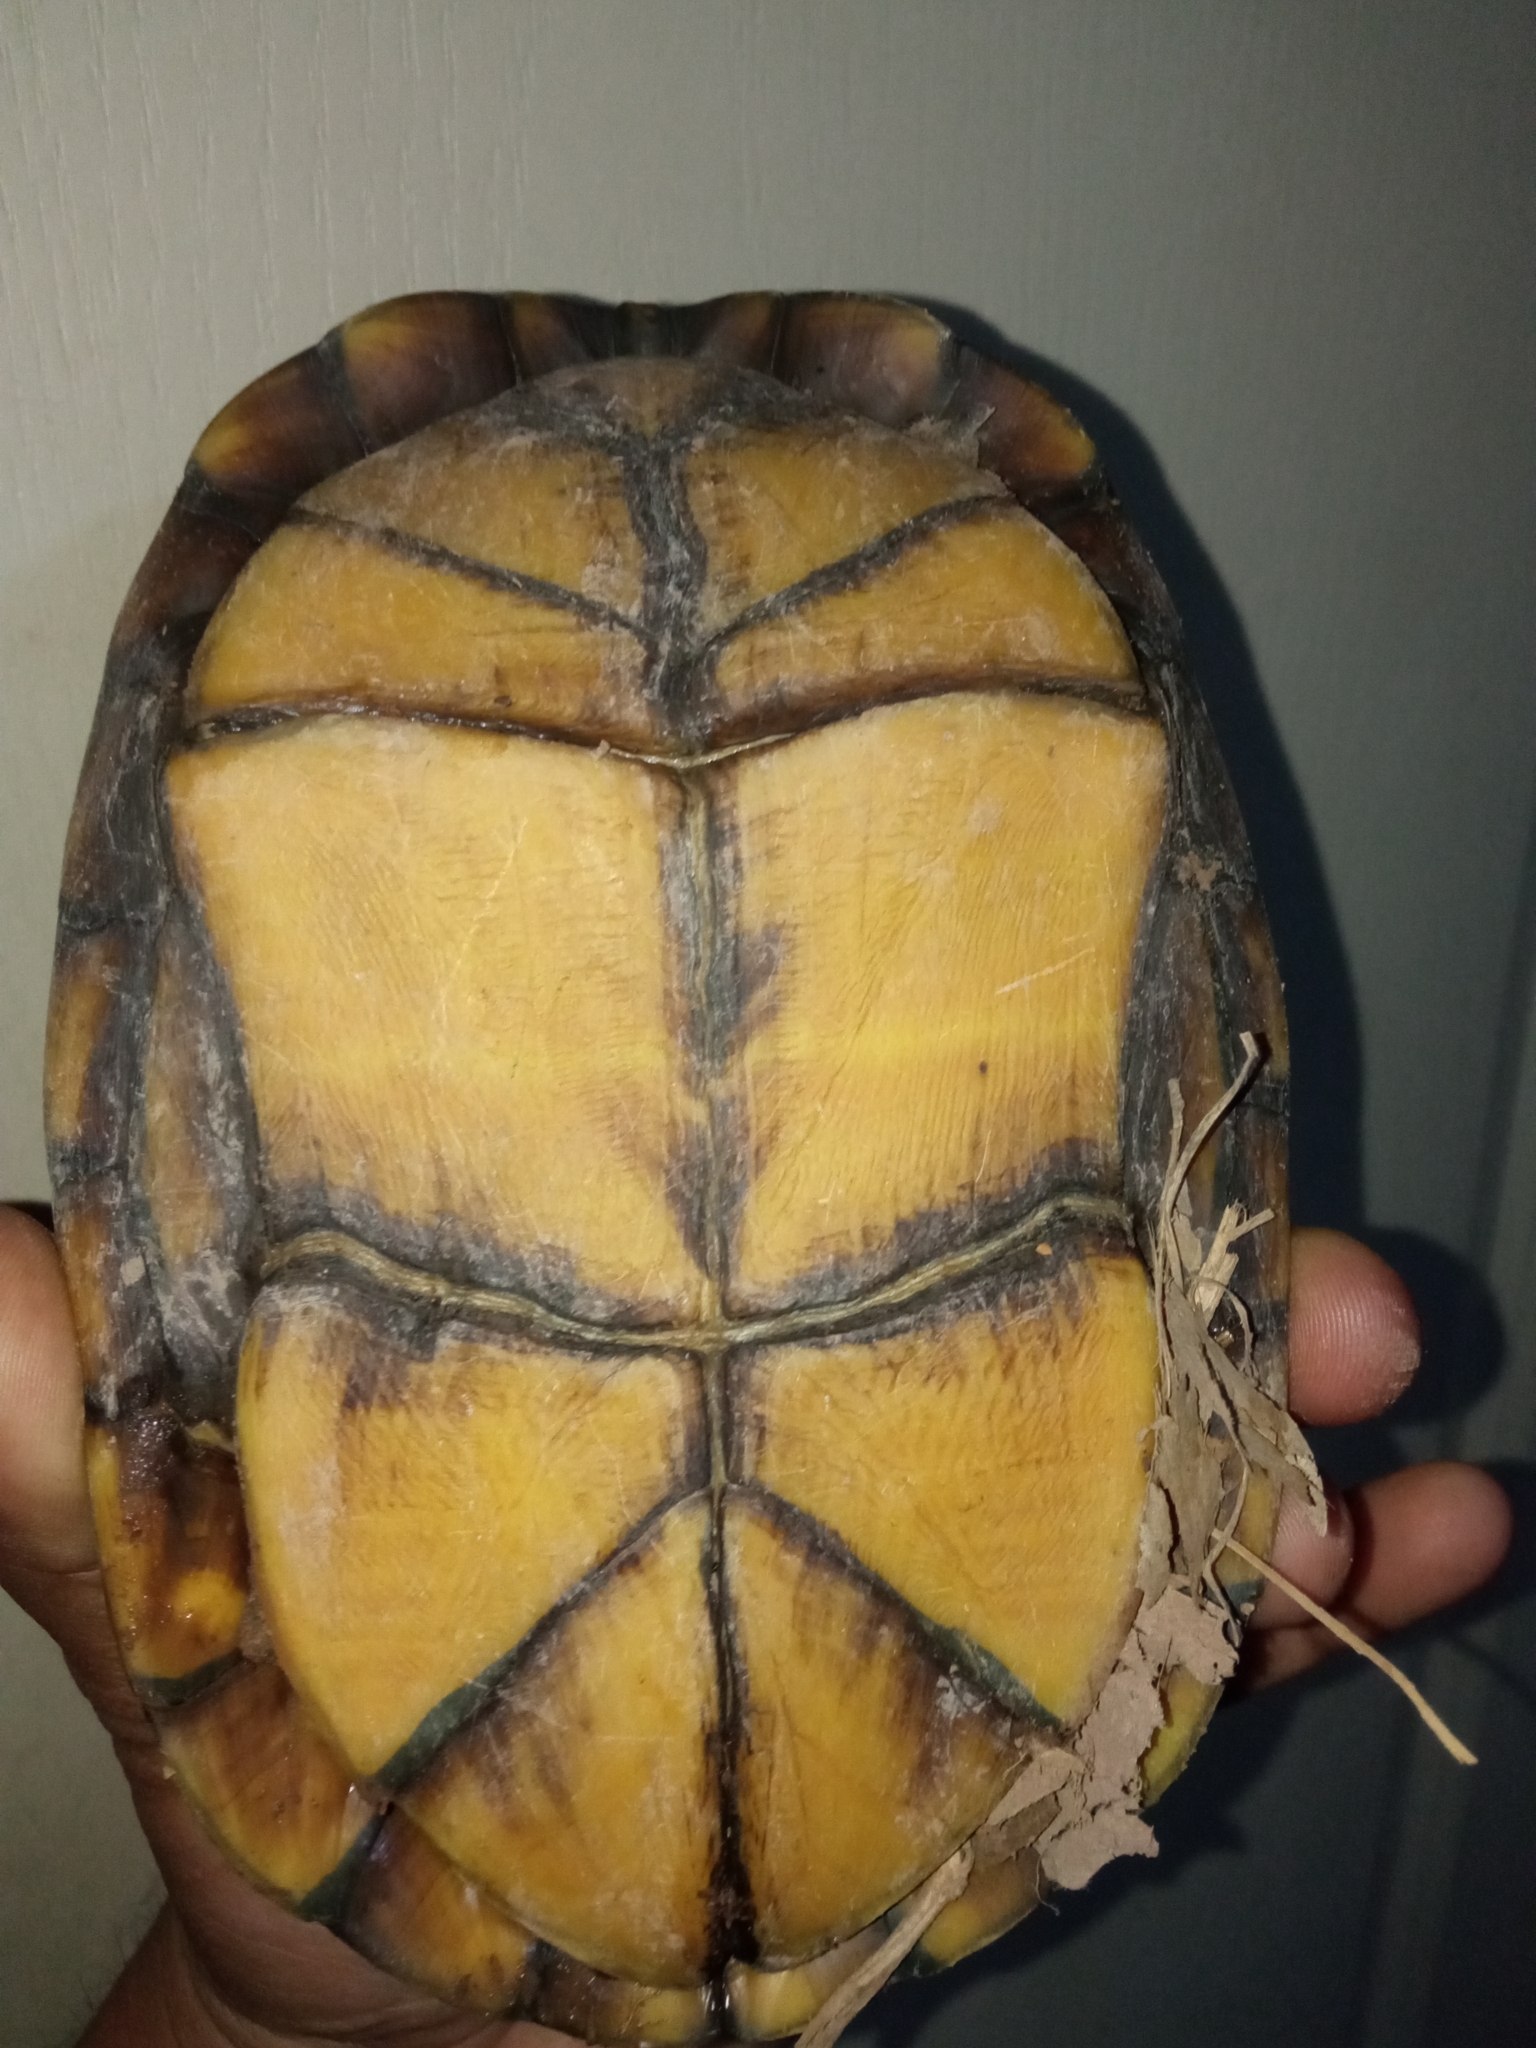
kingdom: Animalia
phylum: Chordata
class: Testudines
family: Kinosternidae
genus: Kinosternon
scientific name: Kinosternon integrum
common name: Mexican mud turtle
